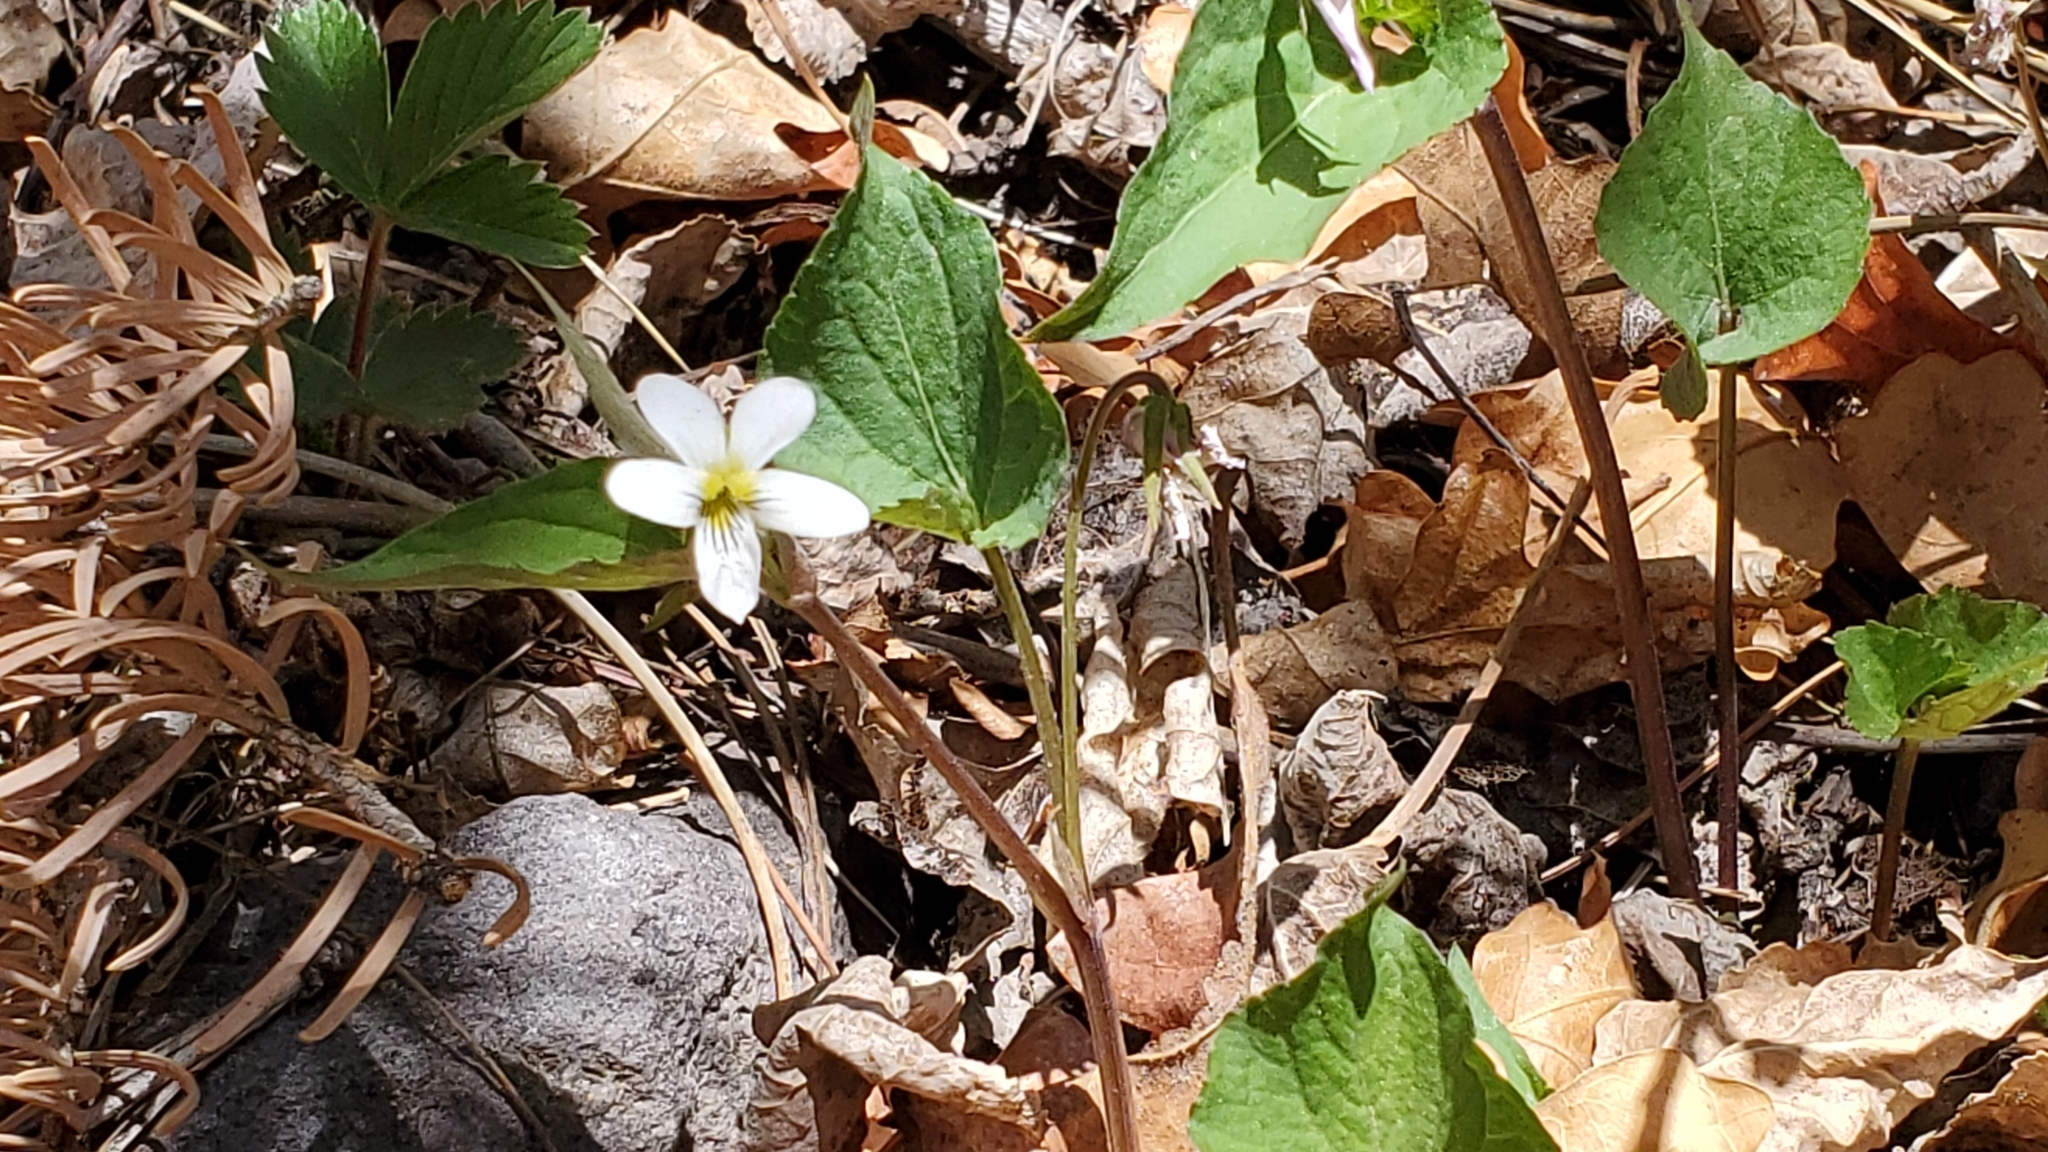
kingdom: Plantae
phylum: Tracheophyta
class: Magnoliopsida
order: Malpighiales
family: Violaceae
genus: Viola
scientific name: Viola canadensis
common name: Canada violet
